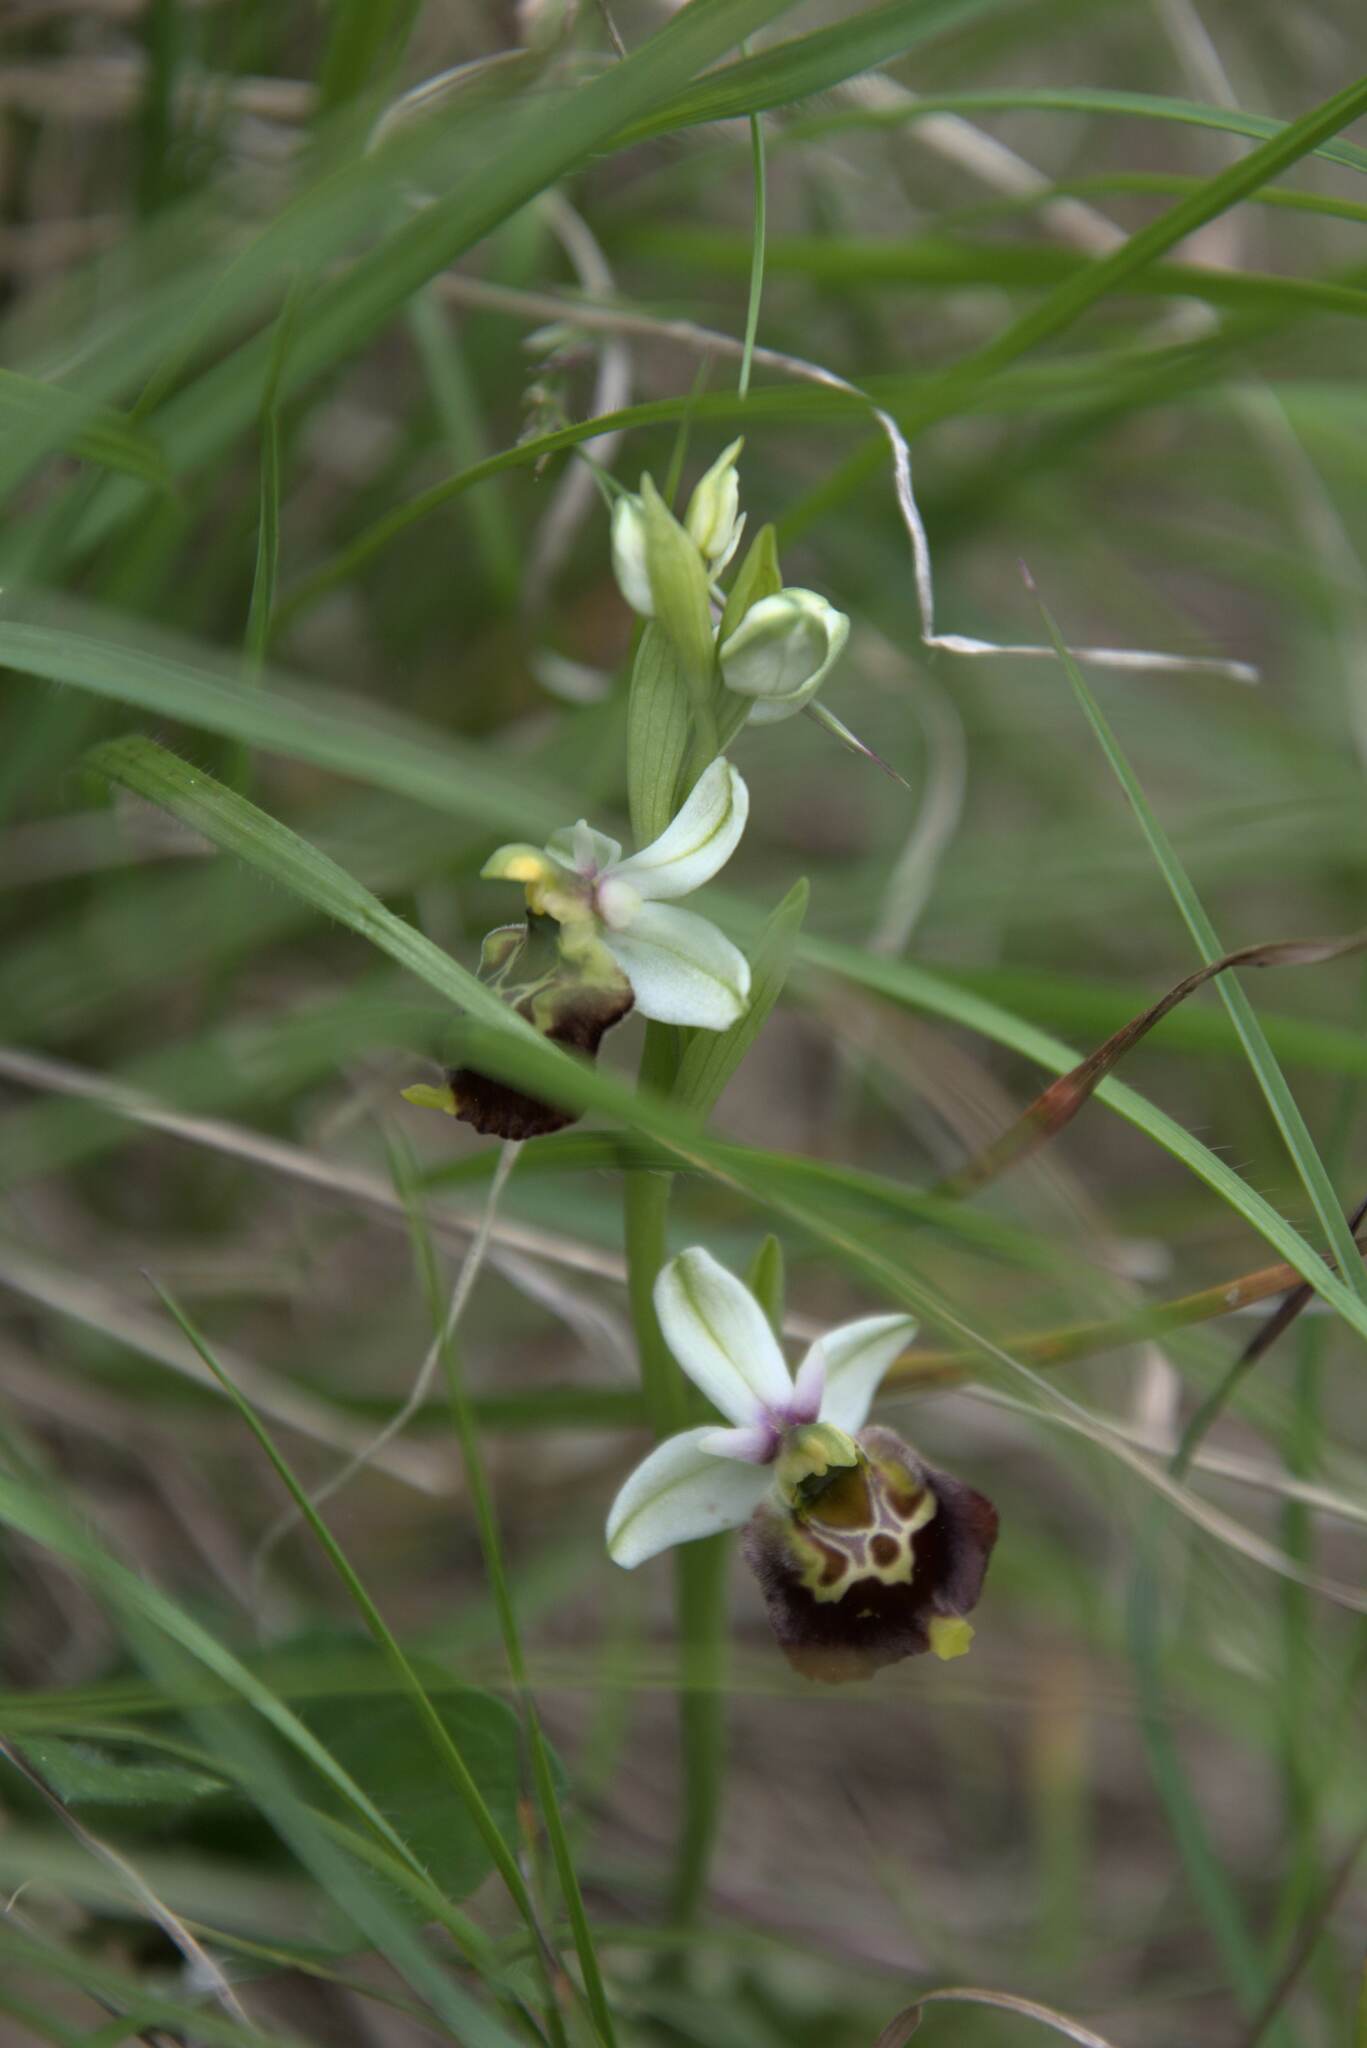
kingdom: Plantae
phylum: Tracheophyta
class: Liliopsida
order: Asparagales
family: Orchidaceae
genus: Ophrys
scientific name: Ophrys holosericea
